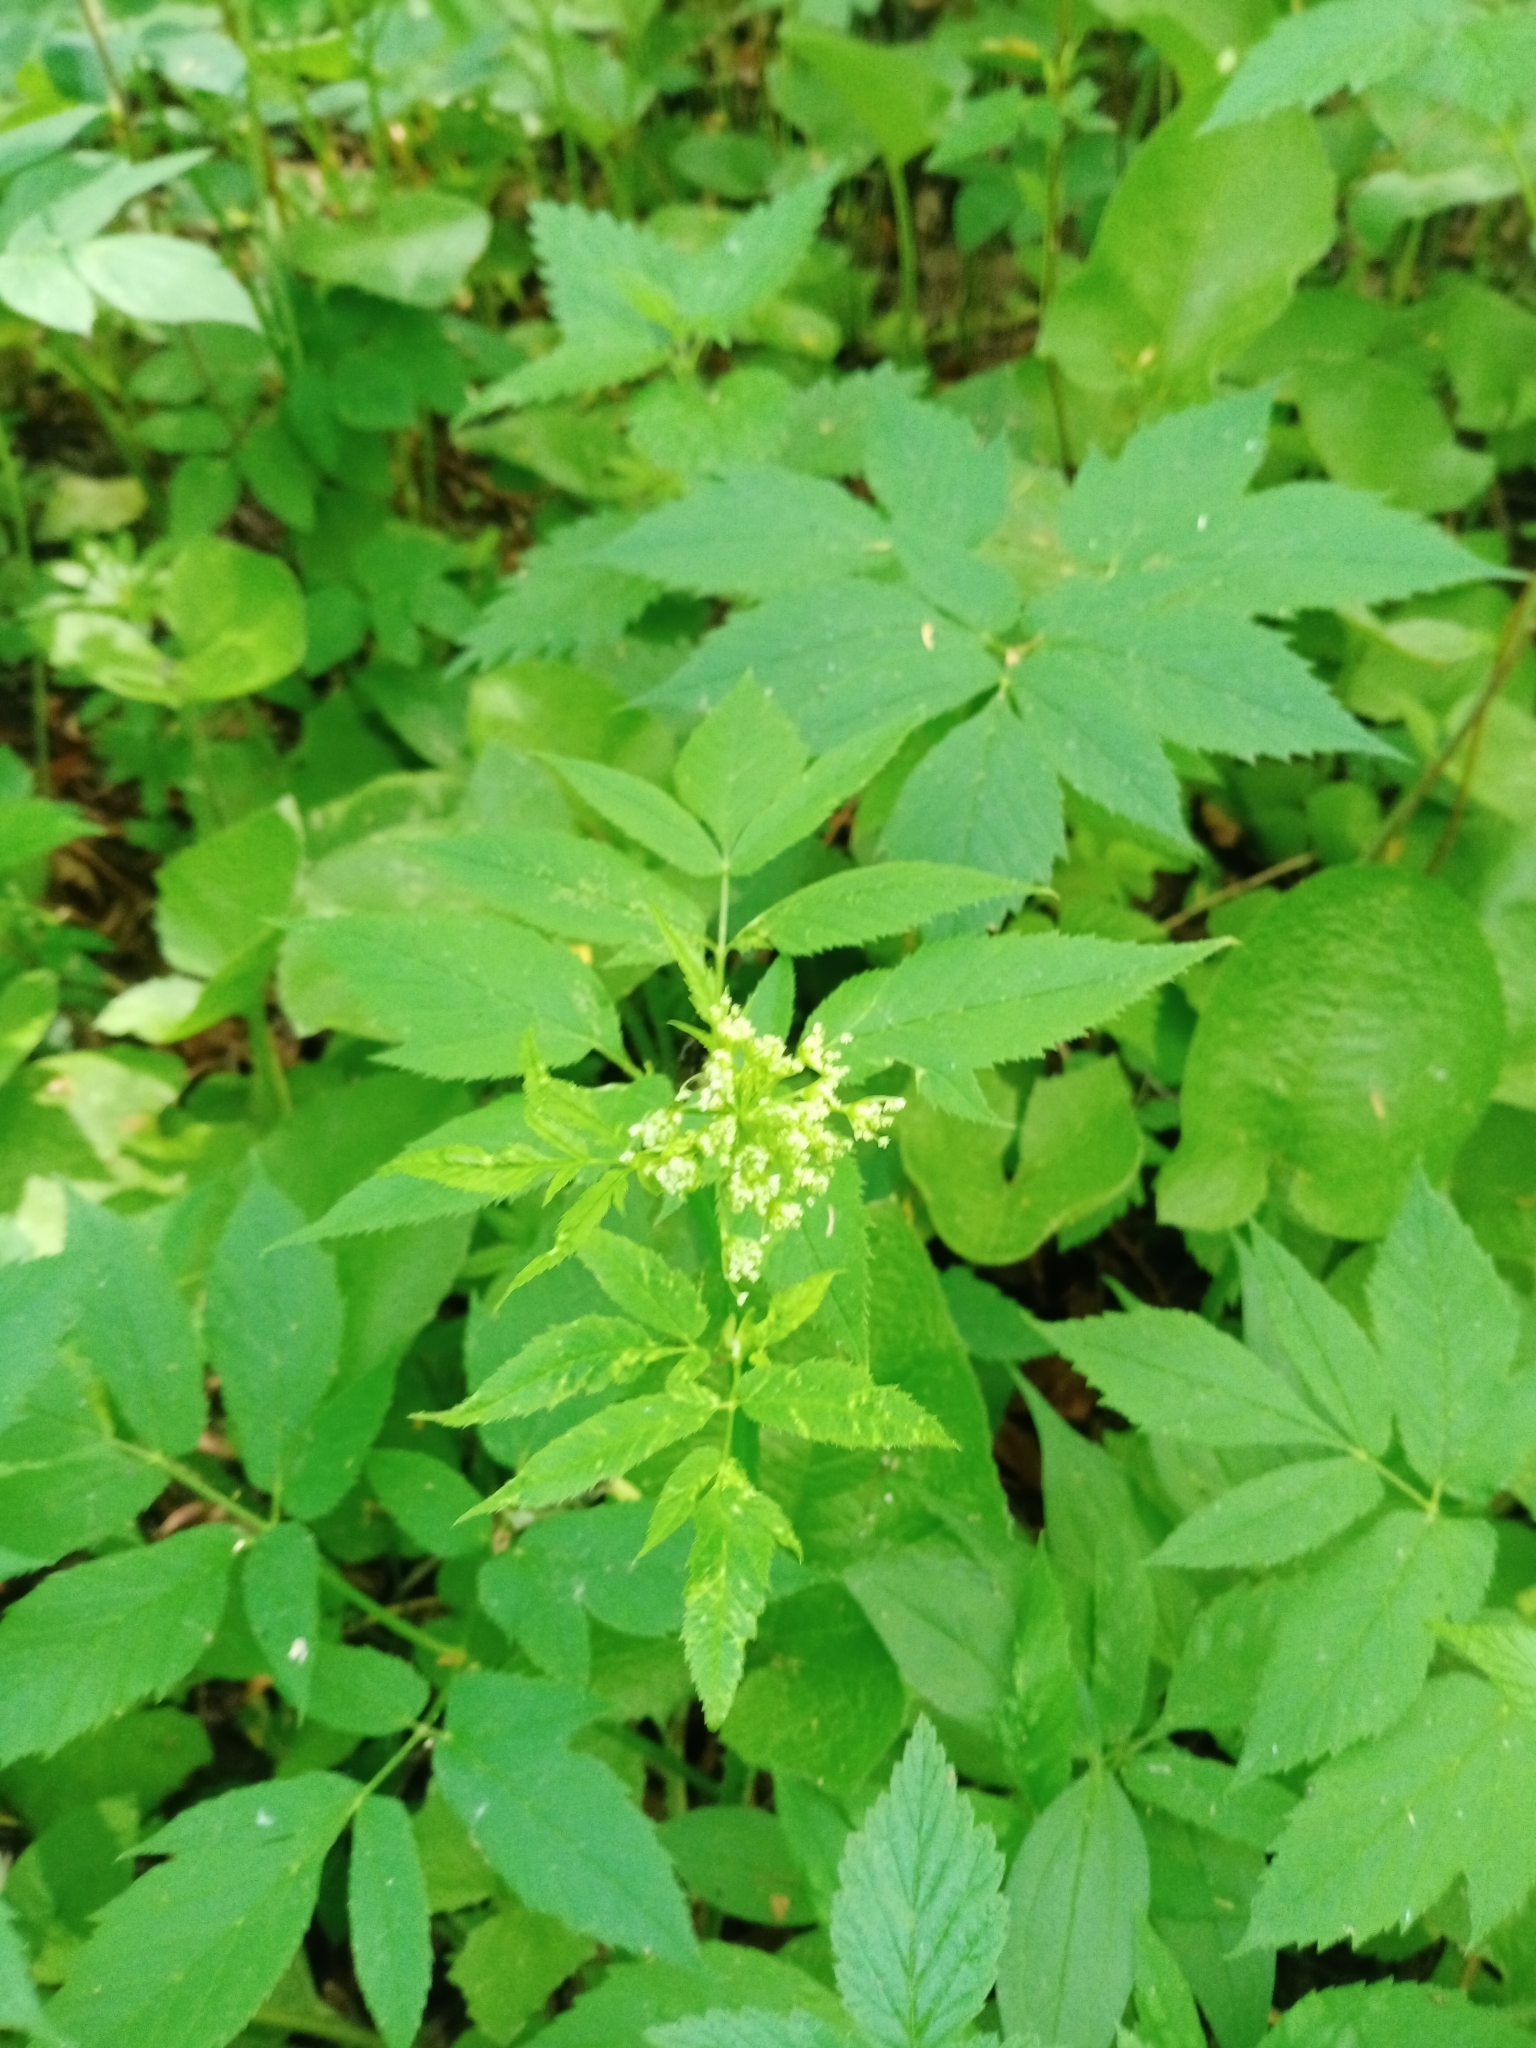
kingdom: Plantae
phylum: Tracheophyta
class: Magnoliopsida
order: Apiales
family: Apiaceae
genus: Aegopodium
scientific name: Aegopodium podagraria
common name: Ground-elder
